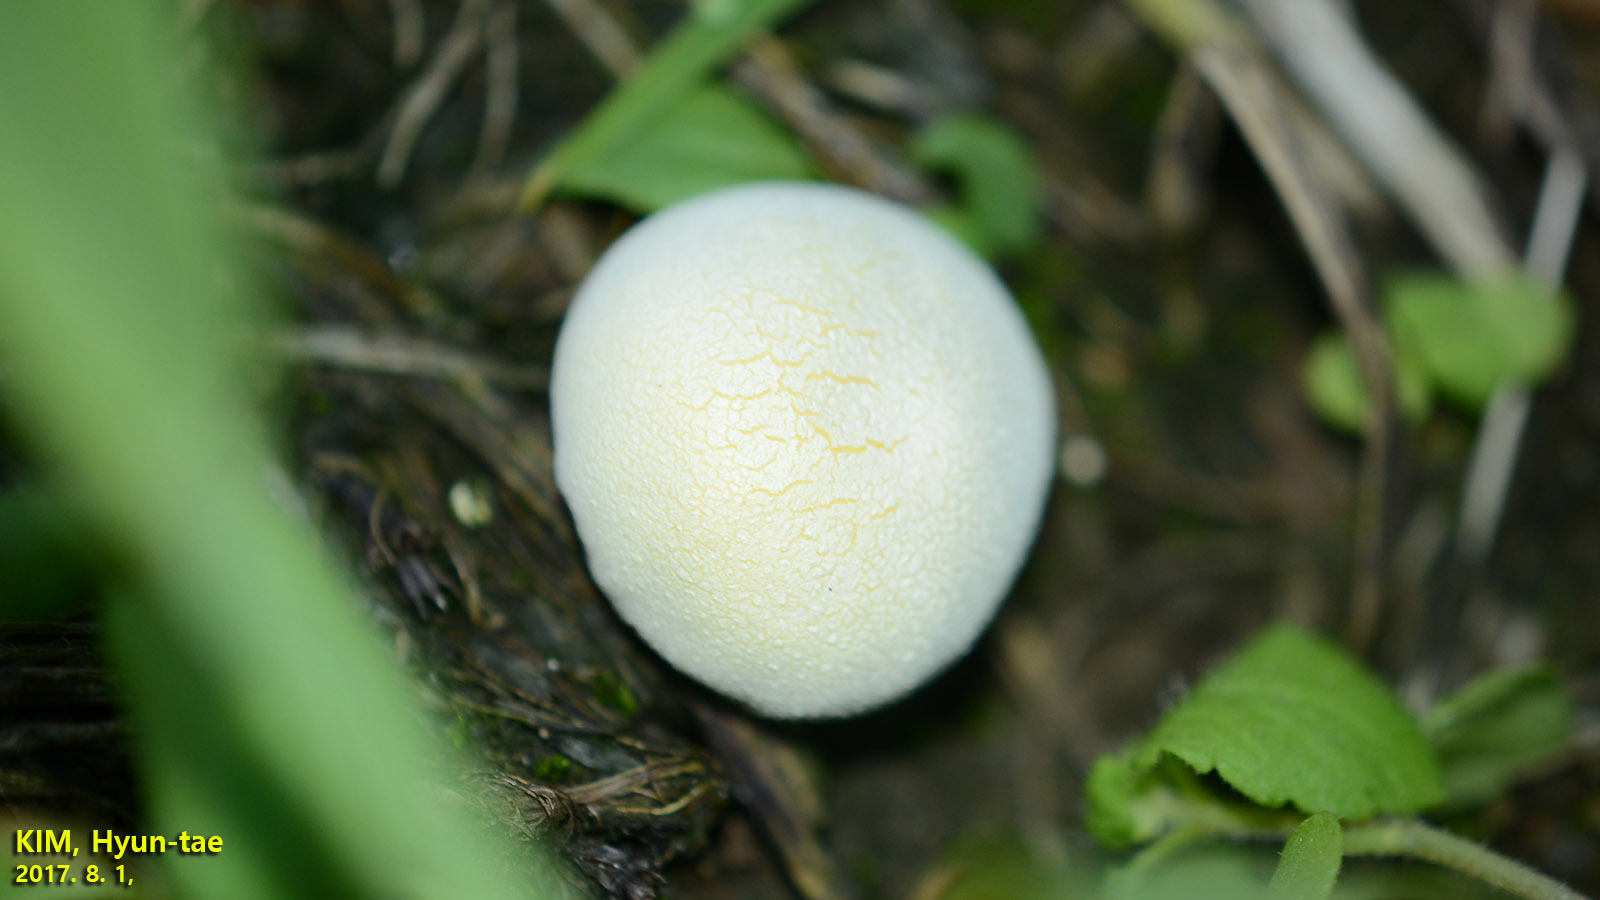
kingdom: Fungi
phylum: Basidiomycota
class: Agaricomycetes
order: Agaricales
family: Lycoperdaceae
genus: Lycoperdon
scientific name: Lycoperdon flavotinctum
